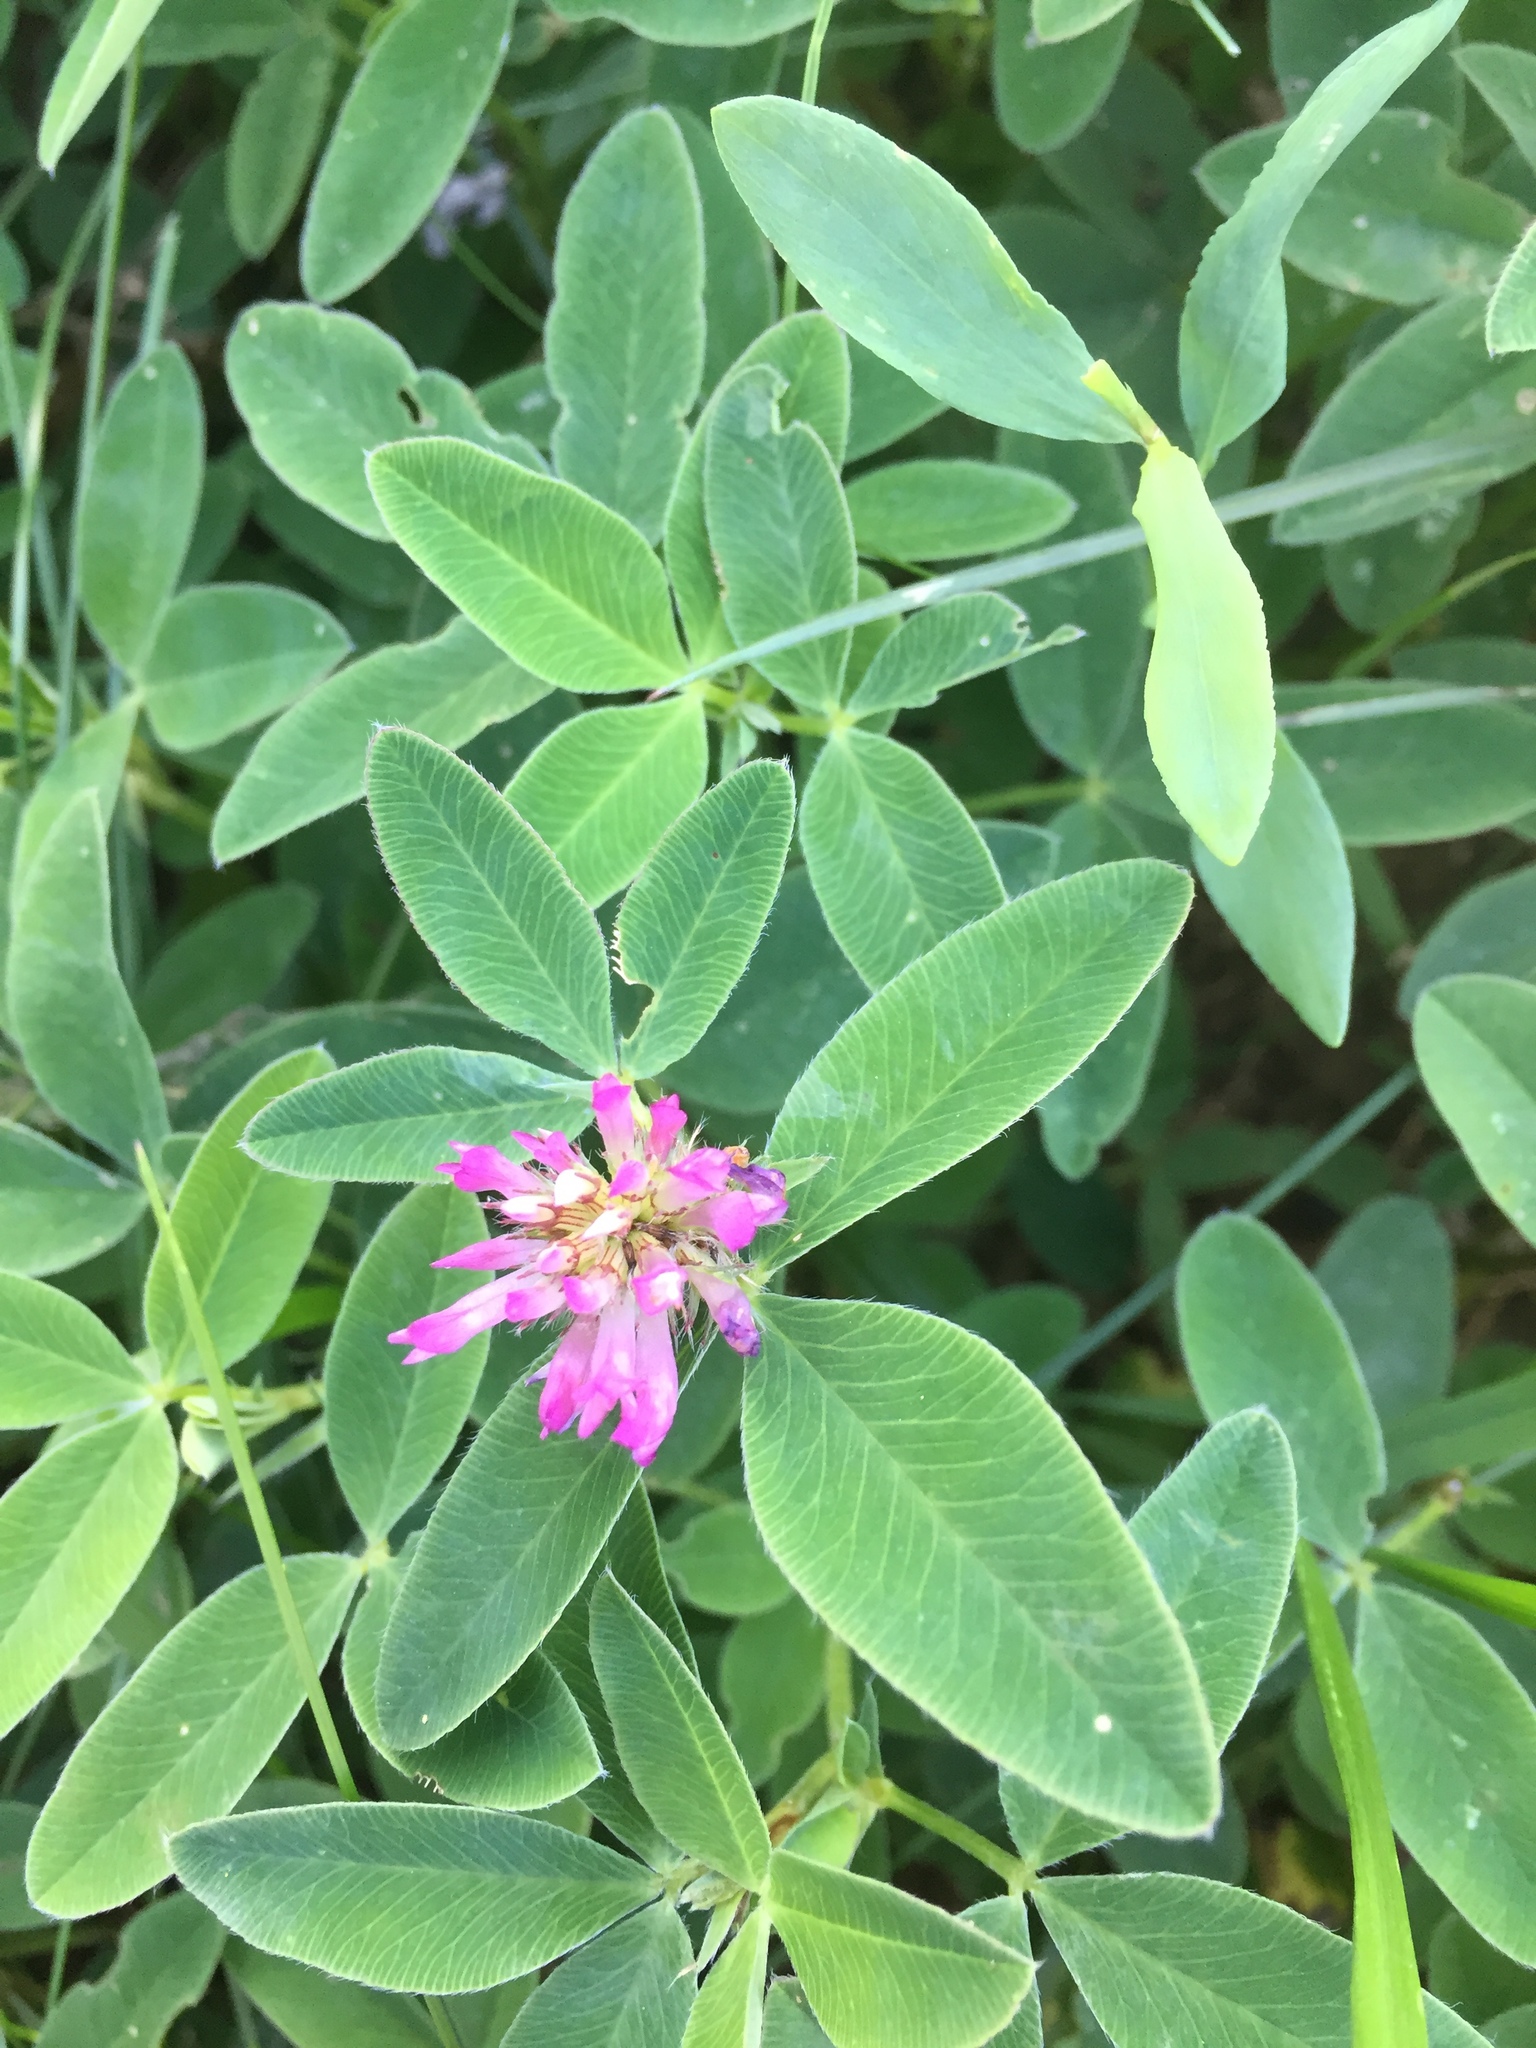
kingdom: Plantae
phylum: Tracheophyta
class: Magnoliopsida
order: Fabales
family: Fabaceae
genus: Trifolium
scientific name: Trifolium medium
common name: Zigzag clover
